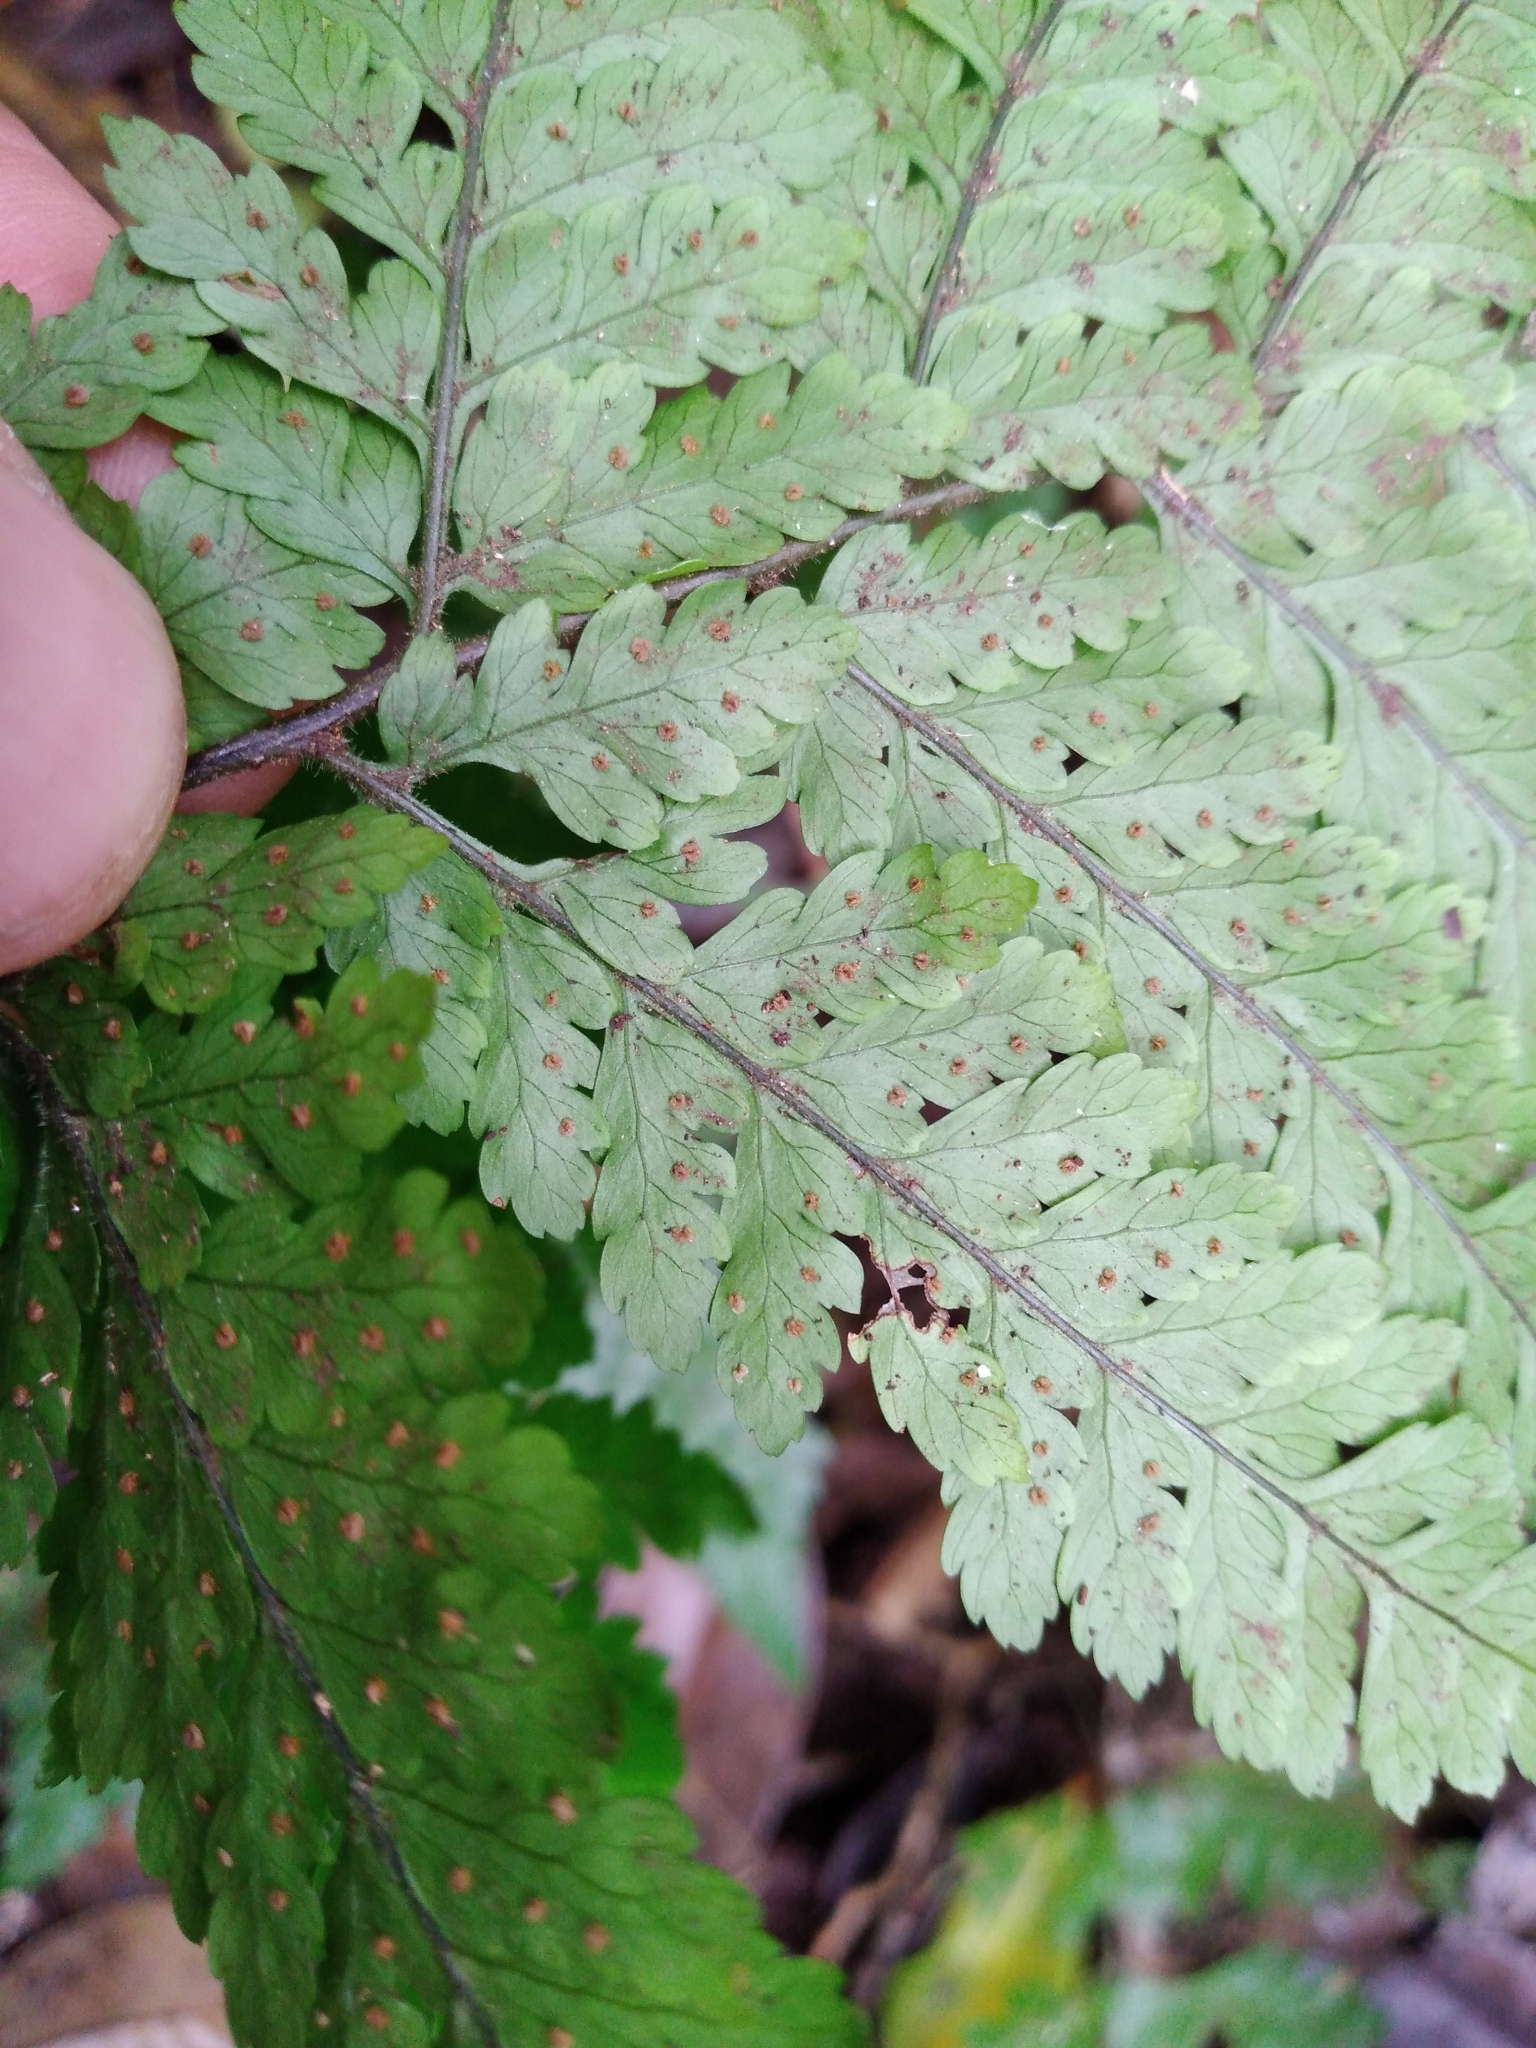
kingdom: Plantae
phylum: Tracheophyta
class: Polypodiopsida
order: Polypodiales
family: Dryopteridaceae
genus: Parapolystichum
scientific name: Parapolystichum calanthum
